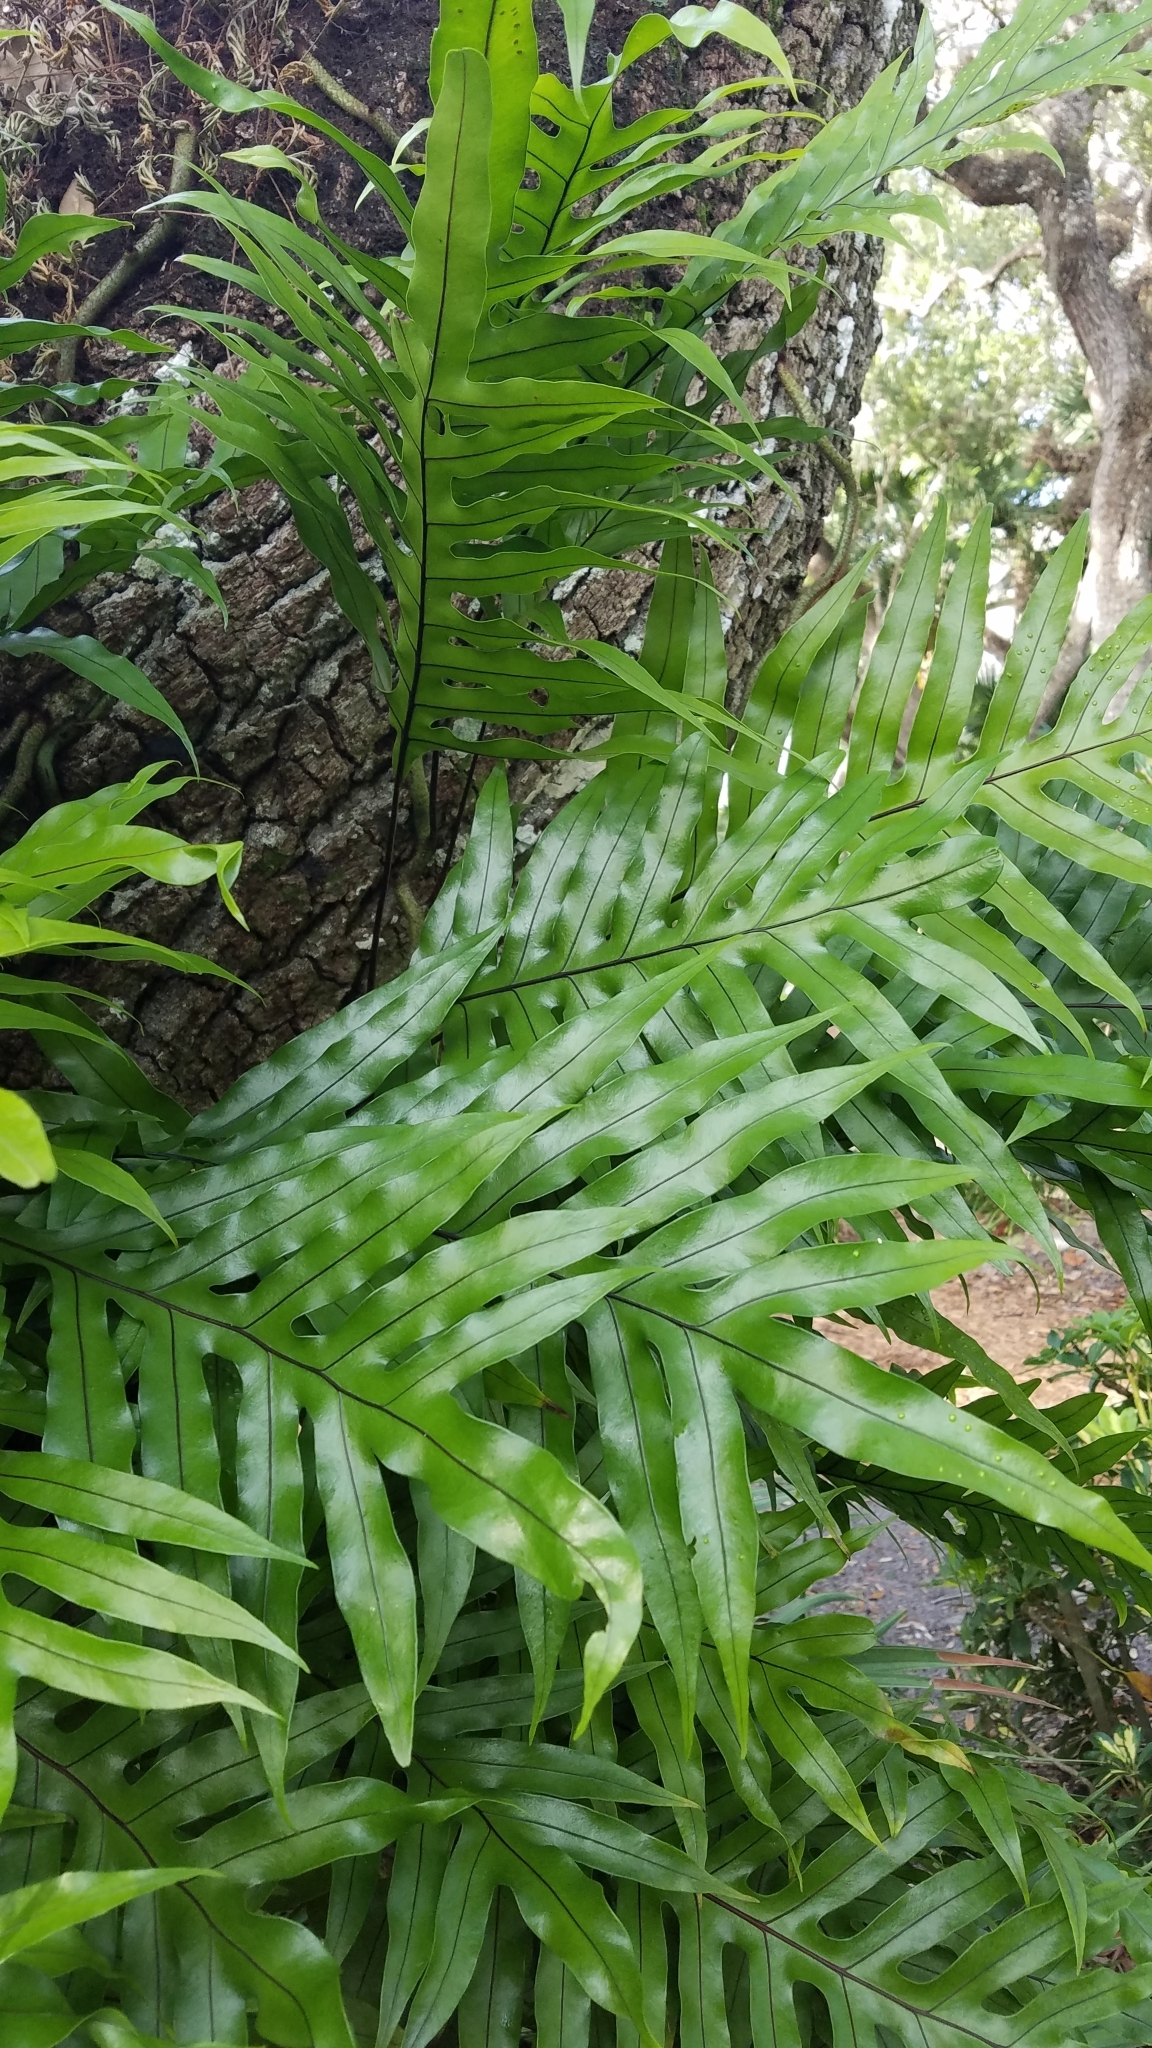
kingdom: Plantae
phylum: Tracheophyta
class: Polypodiopsida
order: Polypodiales
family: Polypodiaceae
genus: Phlebodium
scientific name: Phlebodium aureum
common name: Gold-foot fern
